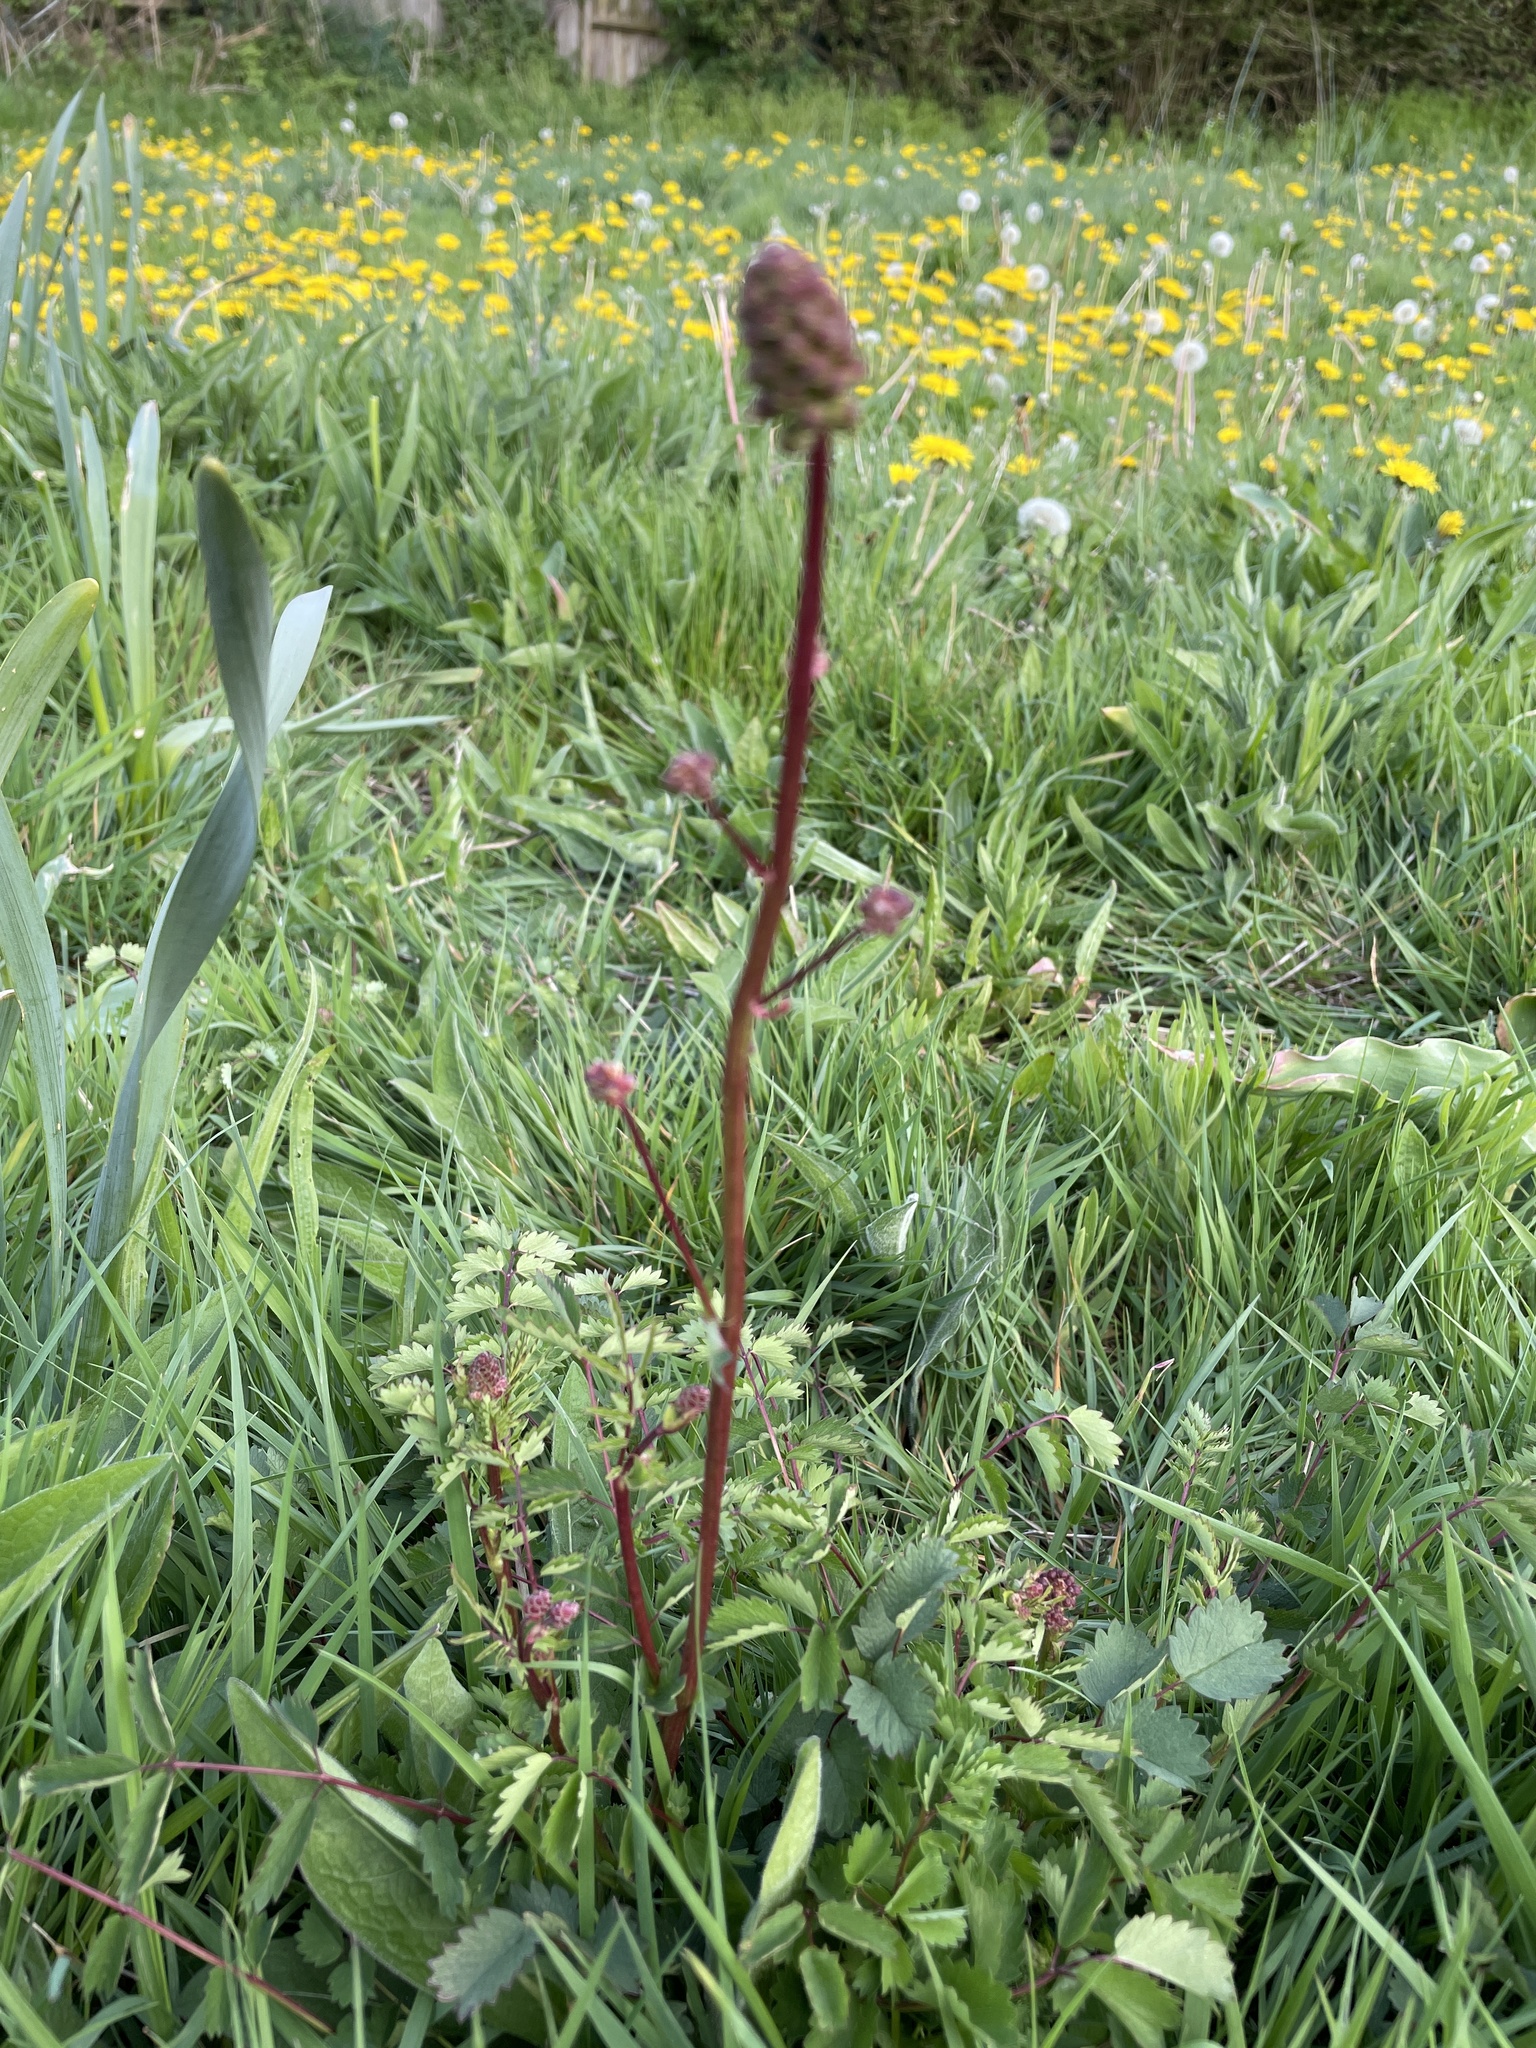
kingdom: Plantae
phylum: Tracheophyta
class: Magnoliopsida
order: Rosales
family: Rosaceae
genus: Poterium
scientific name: Poterium sanguisorba
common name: Salad burnet
